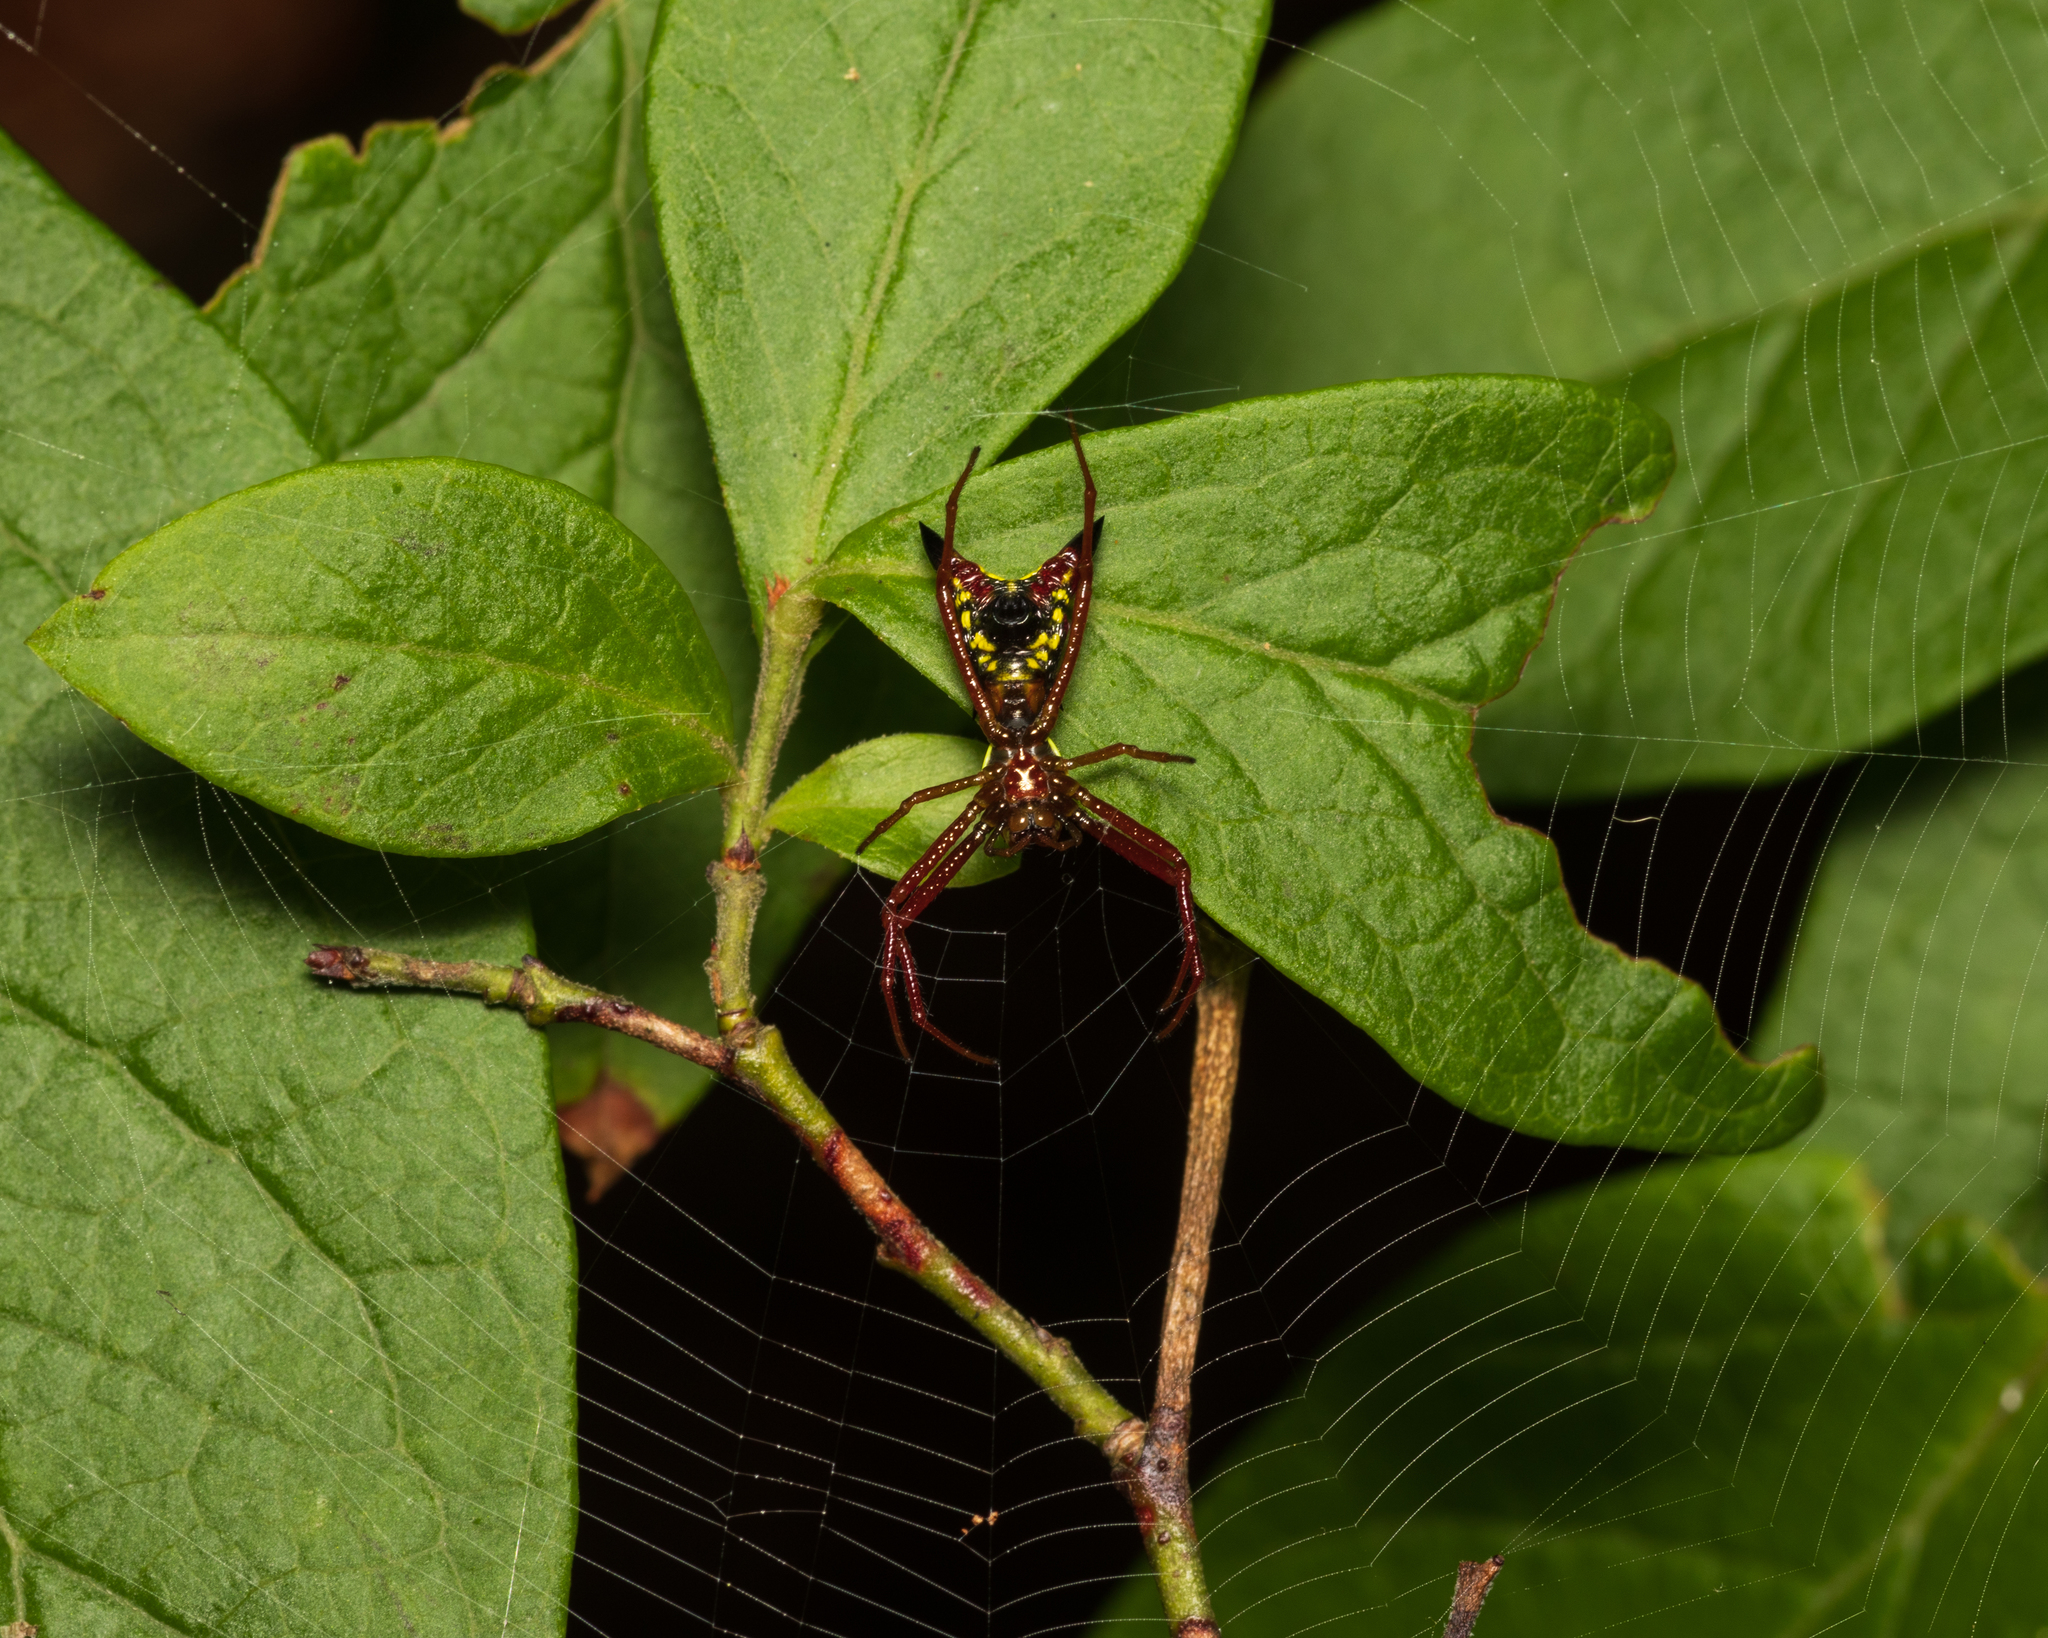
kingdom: Animalia
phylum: Arthropoda
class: Arachnida
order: Araneae
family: Araneidae
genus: Micrathena
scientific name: Micrathena sagittata
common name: Orb weavers
